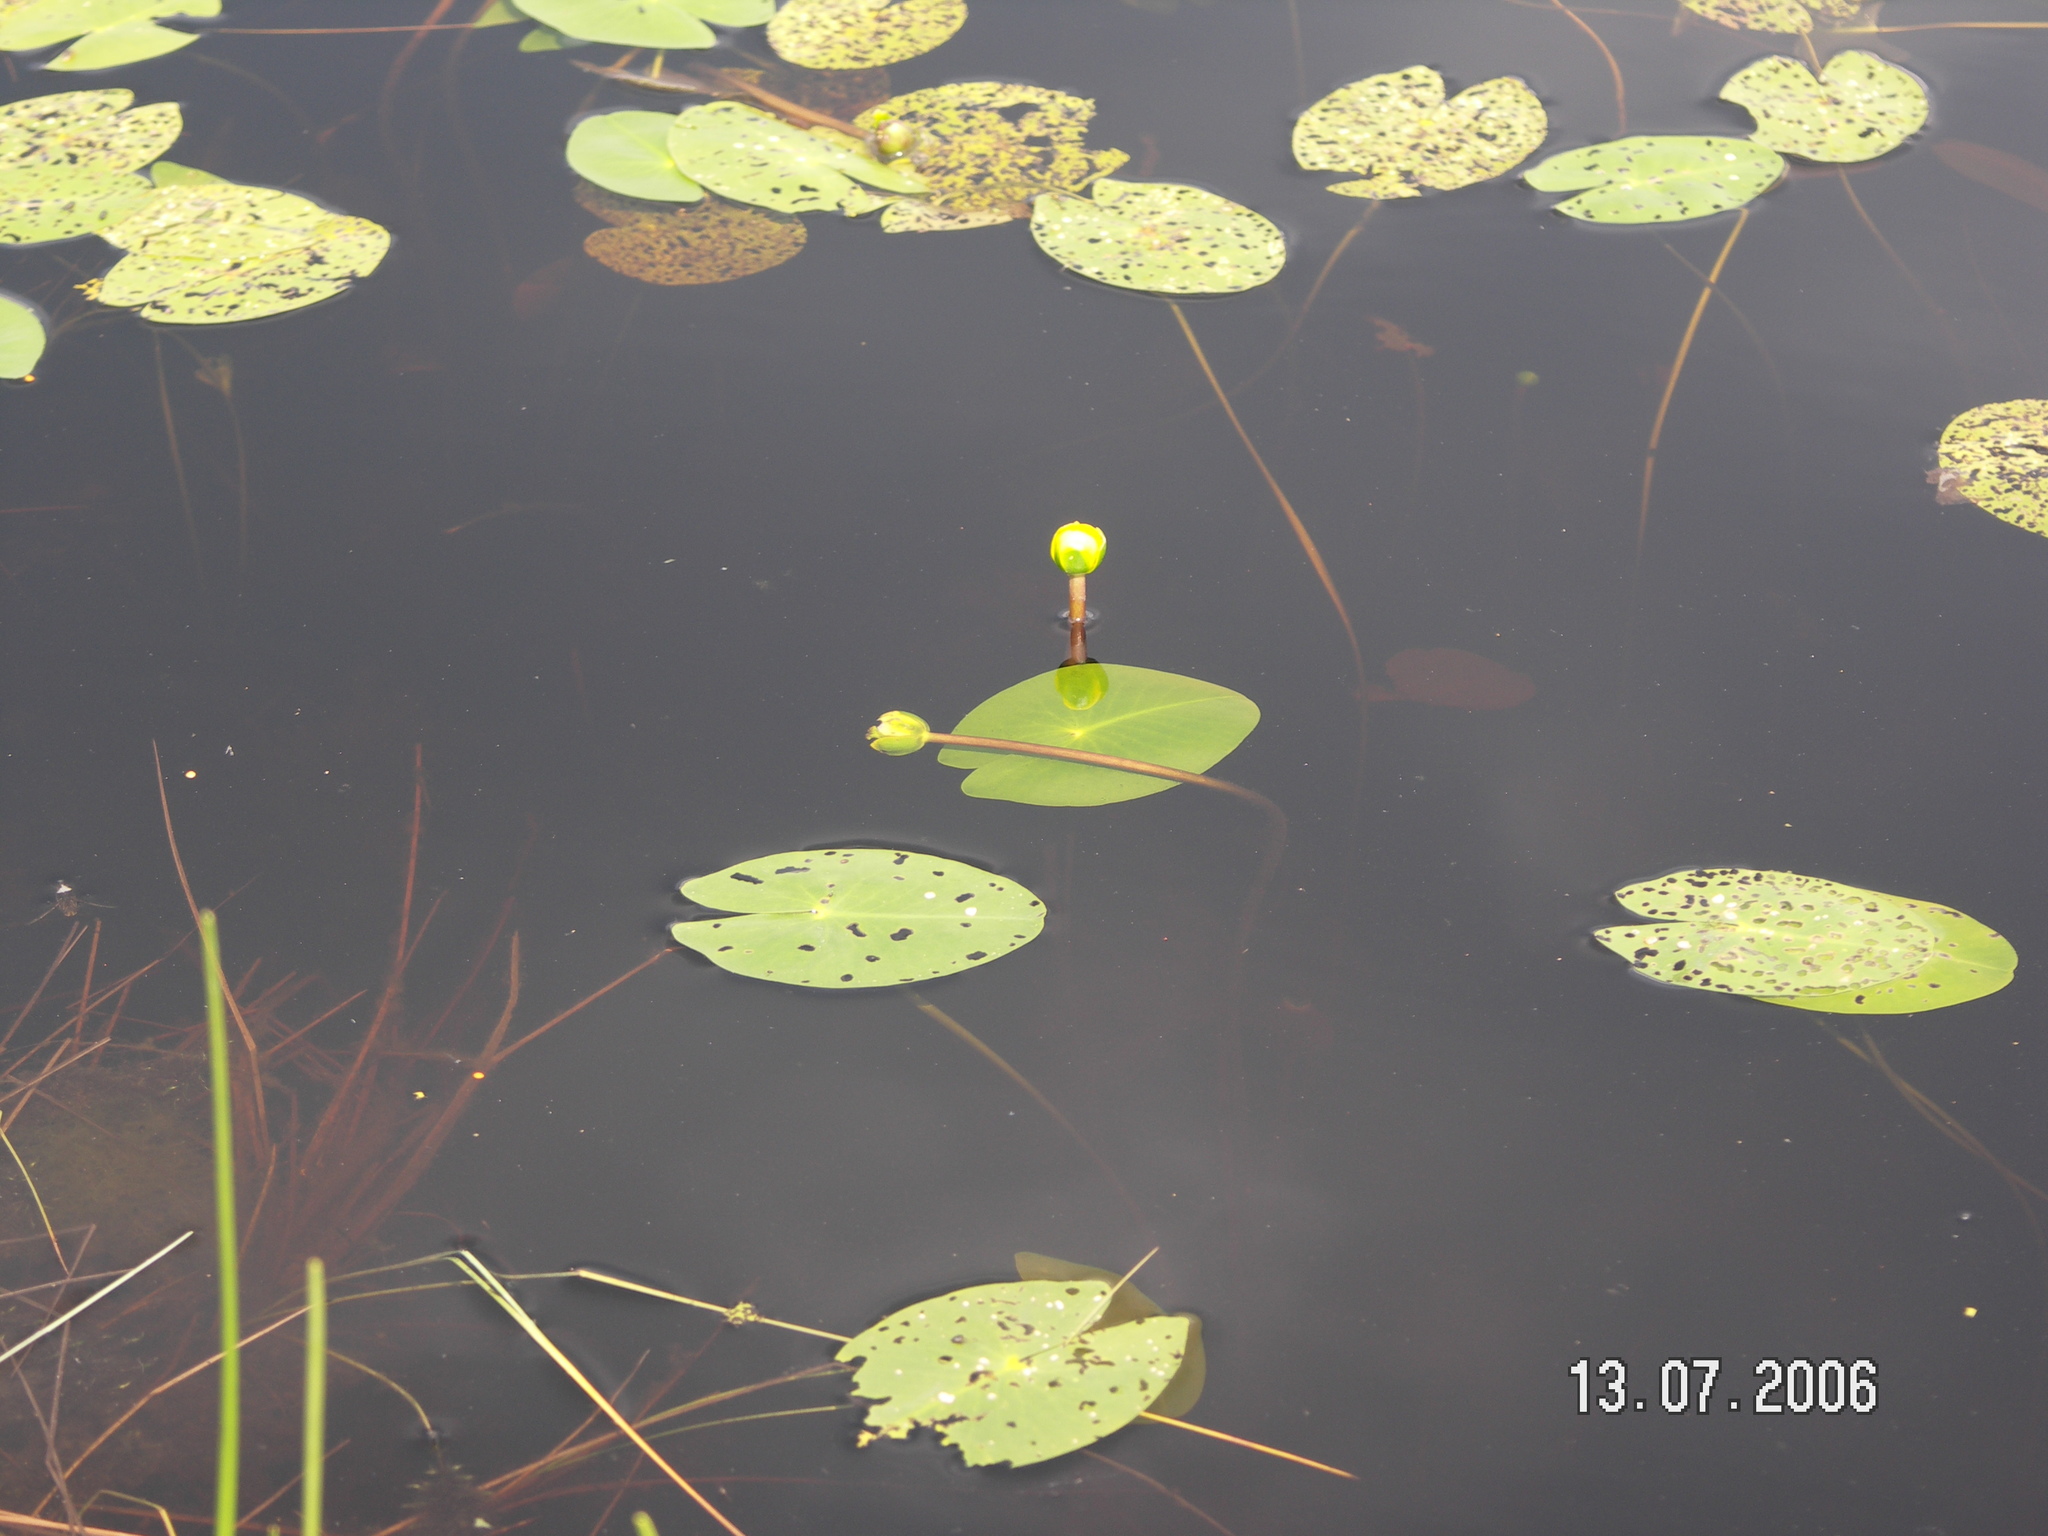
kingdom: Plantae
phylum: Tracheophyta
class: Magnoliopsida
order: Nymphaeales
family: Nymphaeaceae
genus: Nuphar
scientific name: Nuphar pumila
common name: Least water-lily
